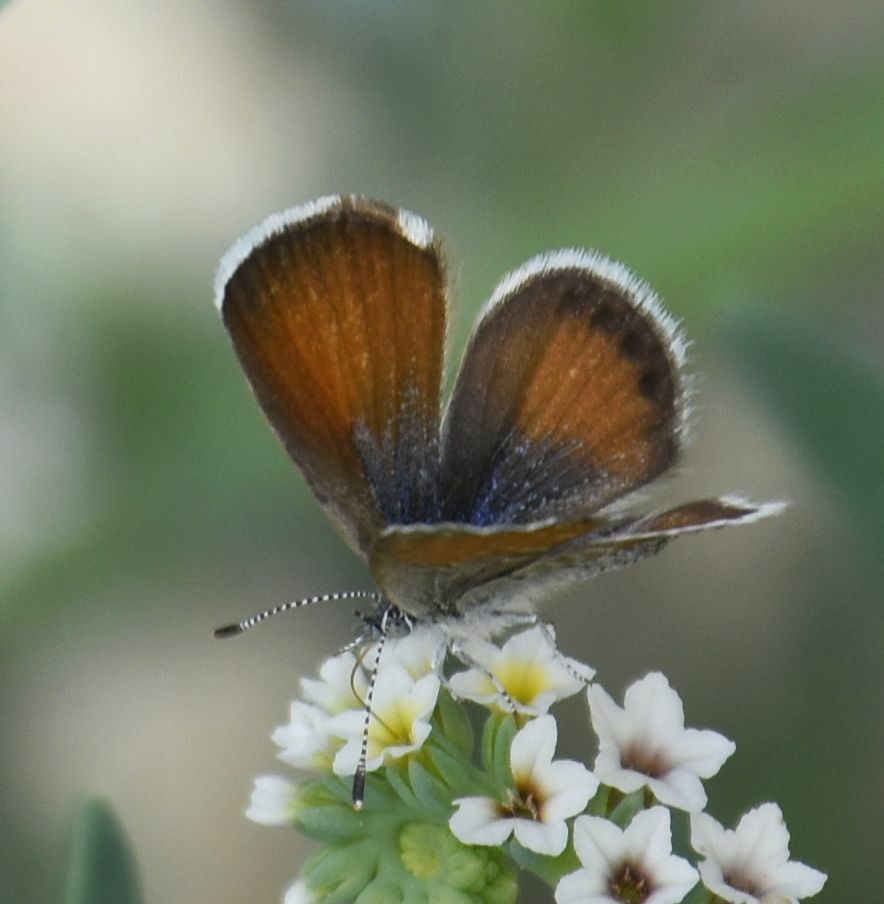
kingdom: Animalia
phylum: Arthropoda
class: Insecta
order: Lepidoptera
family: Lycaenidae
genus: Brephidium
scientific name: Brephidium exilis
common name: Pygmy blue
